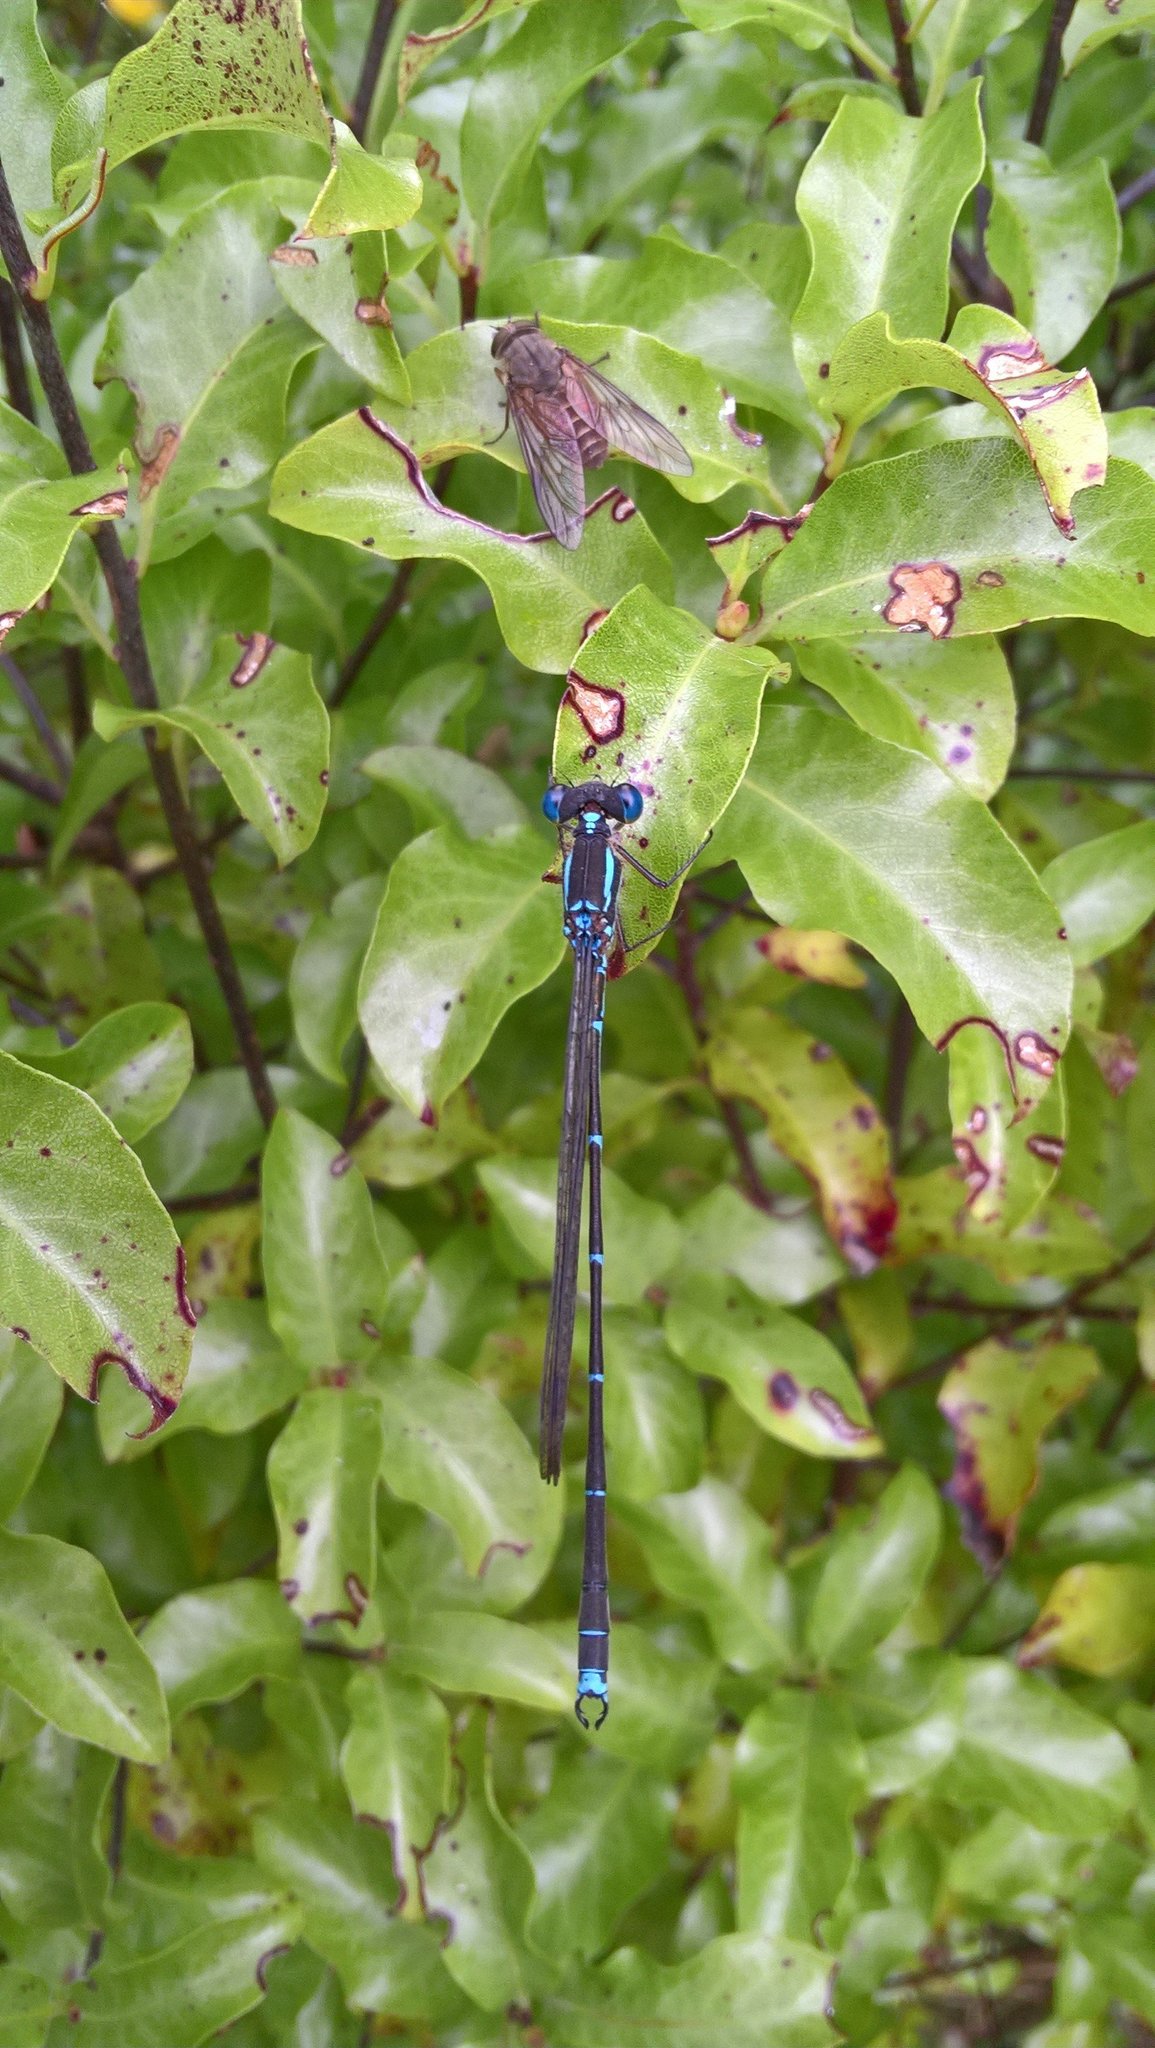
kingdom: Animalia
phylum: Arthropoda
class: Insecta
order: Odonata
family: Lestidae
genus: Austrolestes
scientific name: Austrolestes colensonis
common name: Blue damselfly
